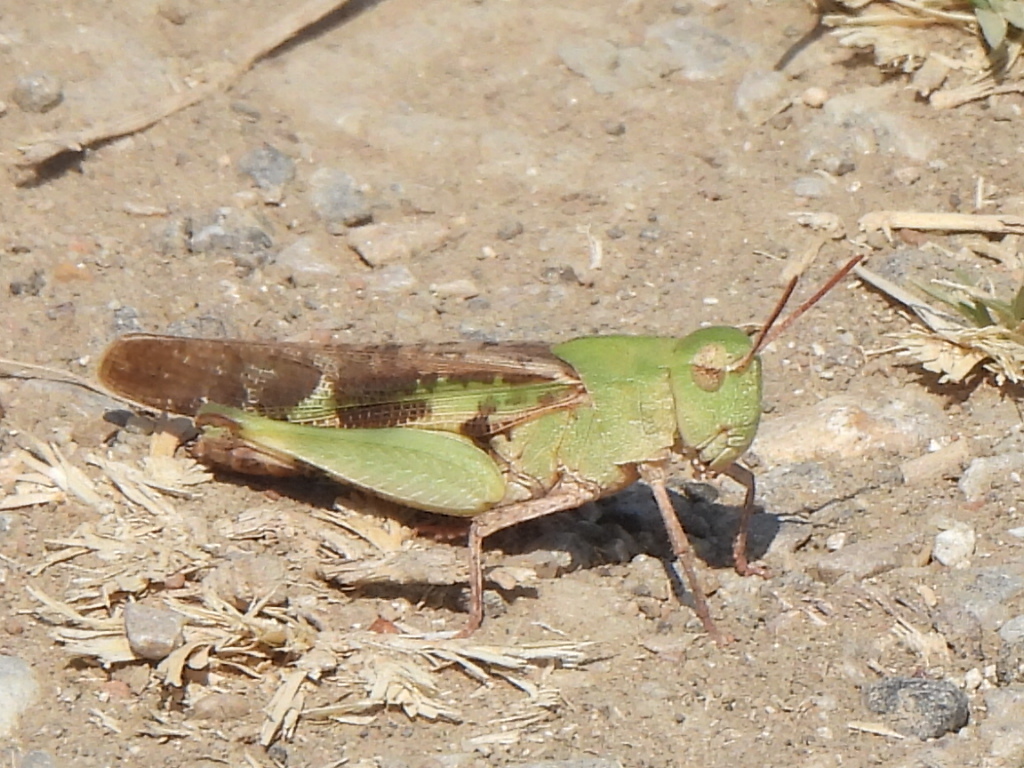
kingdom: Animalia
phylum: Arthropoda
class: Insecta
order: Orthoptera
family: Acrididae
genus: Chortophaga
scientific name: Chortophaga viridifasciata
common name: Green-striped grasshopper
